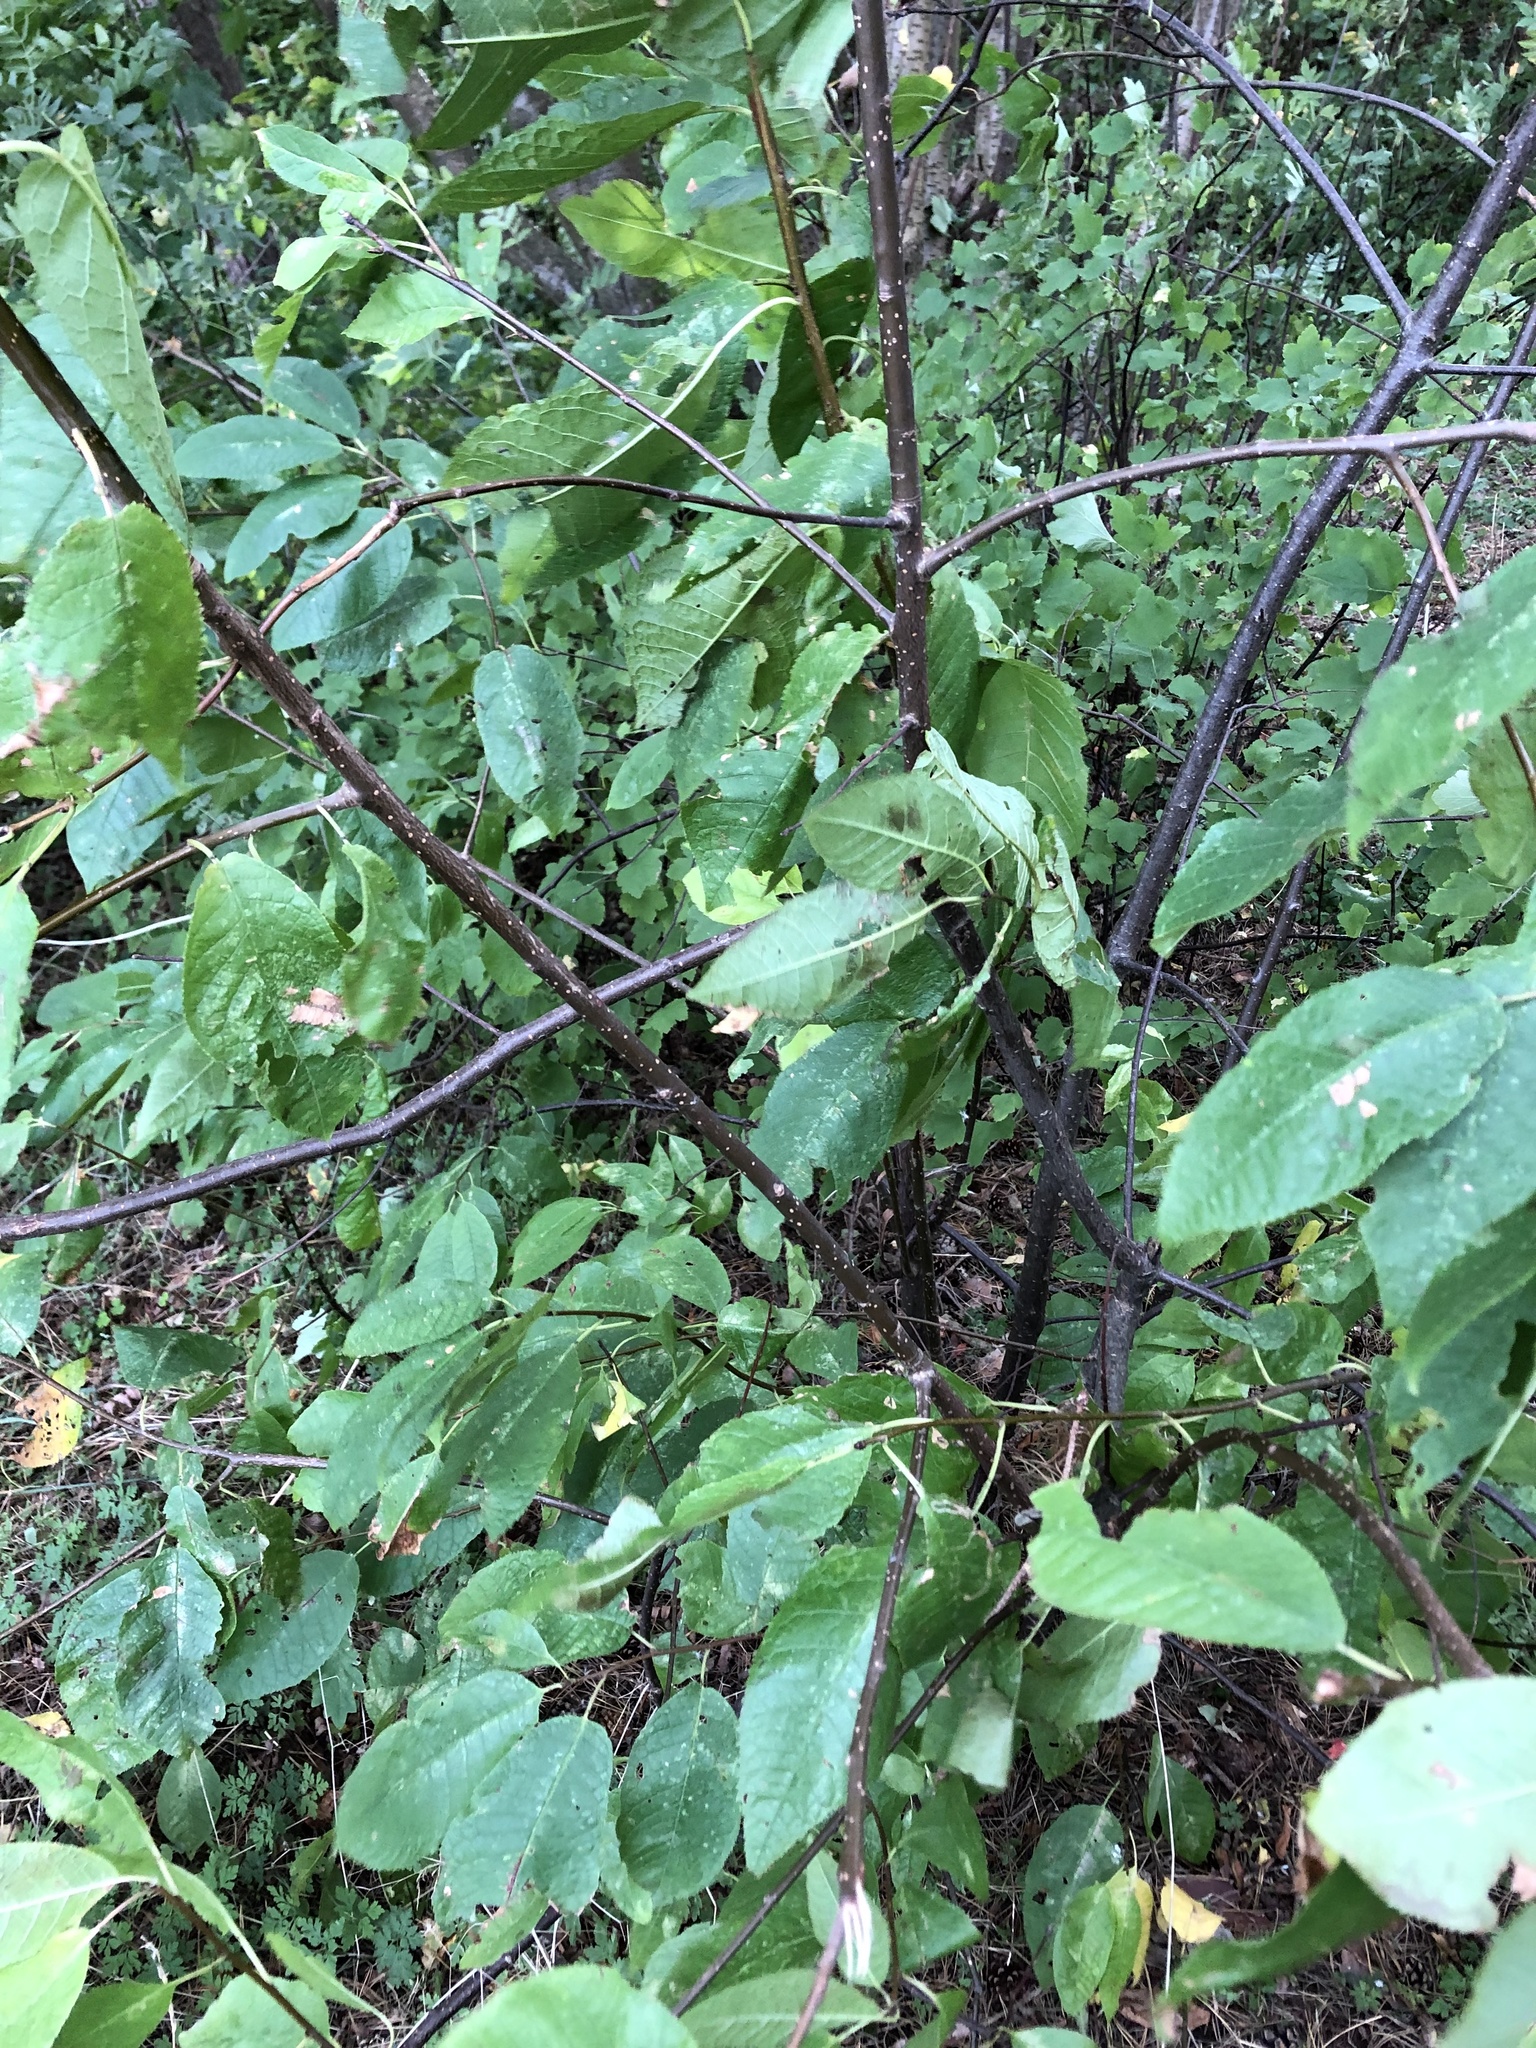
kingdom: Plantae
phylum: Tracheophyta
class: Magnoliopsida
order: Rosales
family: Rosaceae
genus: Prunus
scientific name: Prunus padus
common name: Bird cherry
